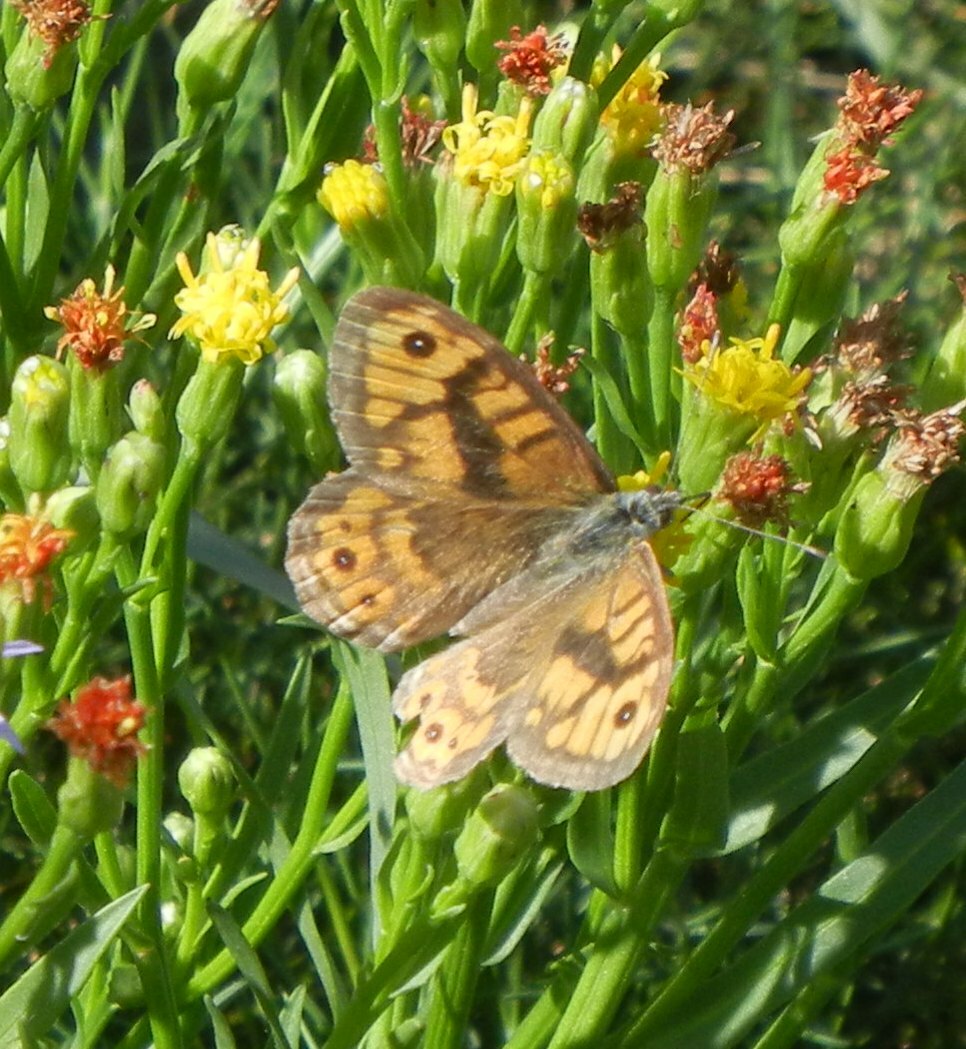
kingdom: Animalia
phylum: Arthropoda
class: Insecta
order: Lepidoptera
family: Nymphalidae
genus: Pararge
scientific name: Pararge Lasiommata megera
